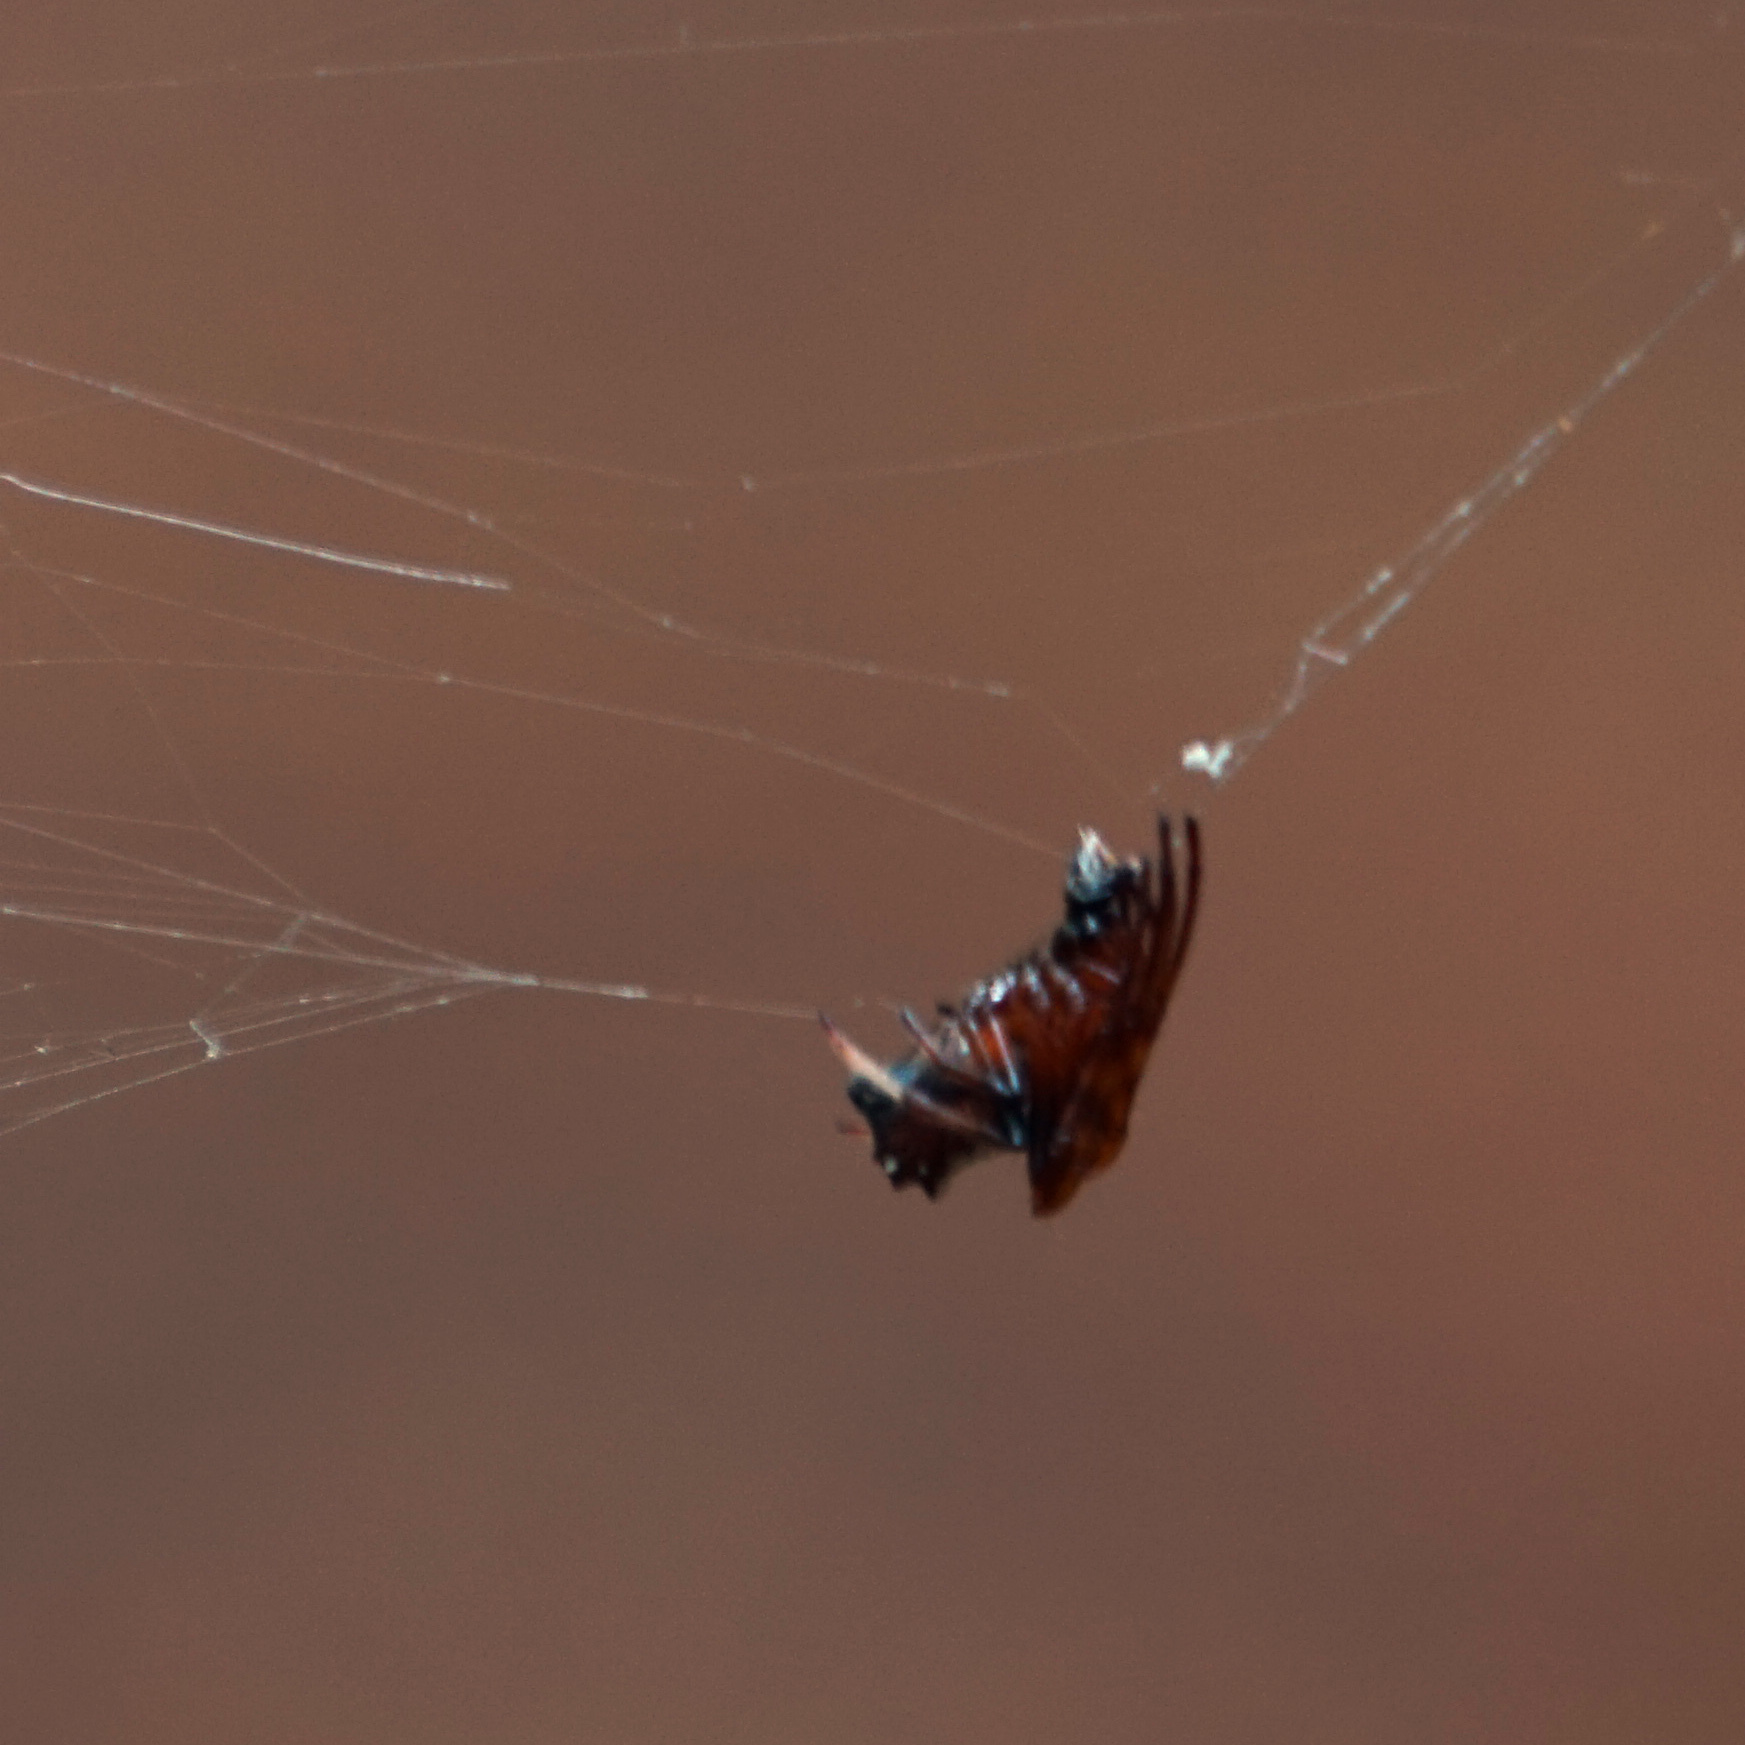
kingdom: Animalia
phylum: Arthropoda
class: Arachnida
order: Araneae
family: Araneidae
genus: Verrucosa
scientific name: Verrucosa arenata
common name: Orb weavers
